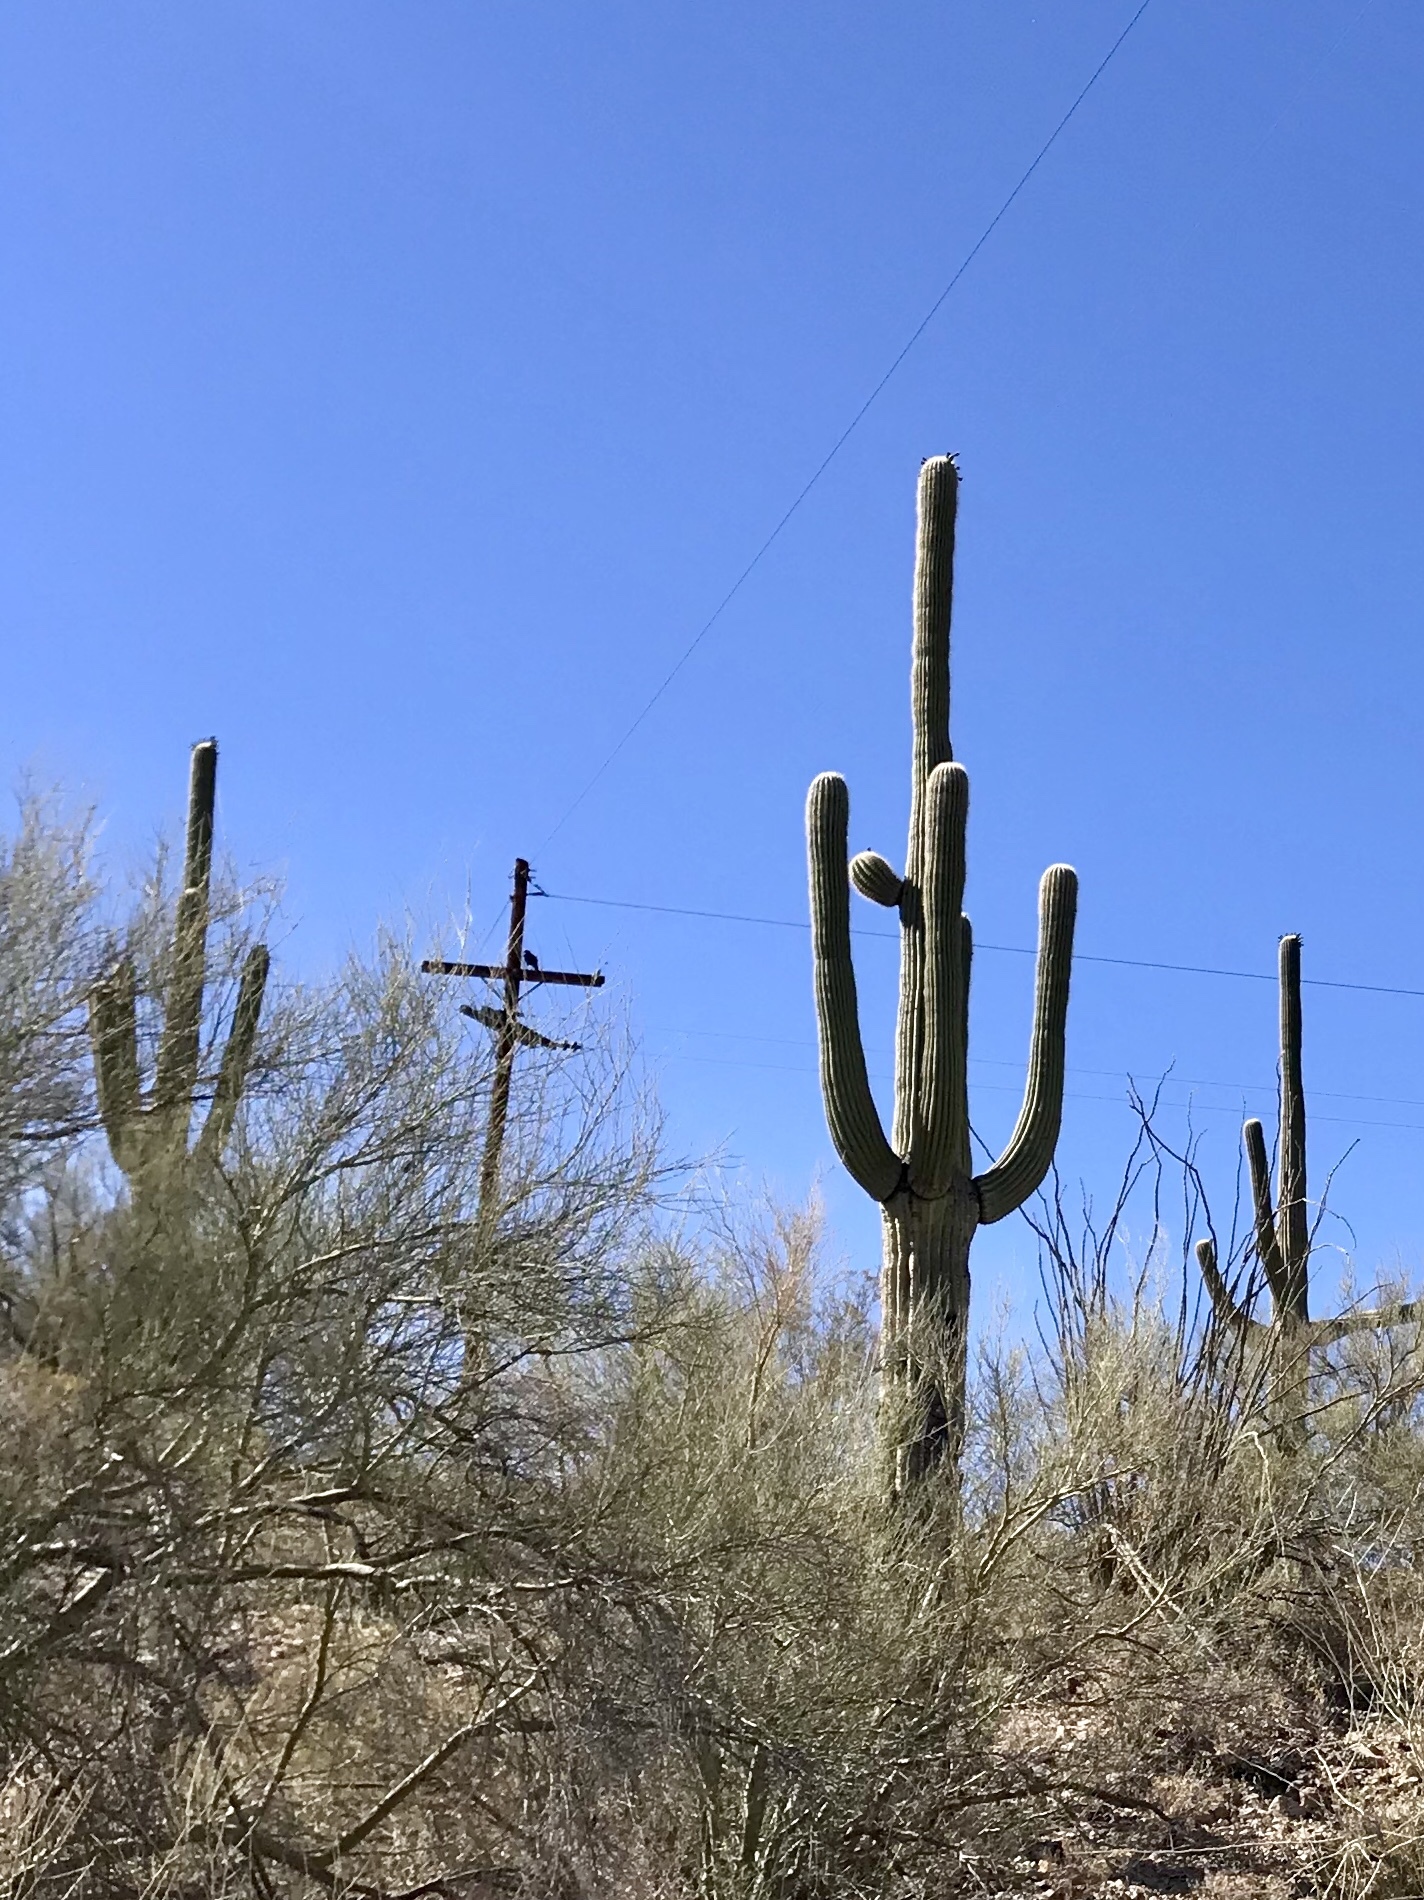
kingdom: Plantae
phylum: Tracheophyta
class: Magnoliopsida
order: Caryophyllales
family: Cactaceae
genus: Carnegiea
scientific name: Carnegiea gigantea
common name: Saguaro
